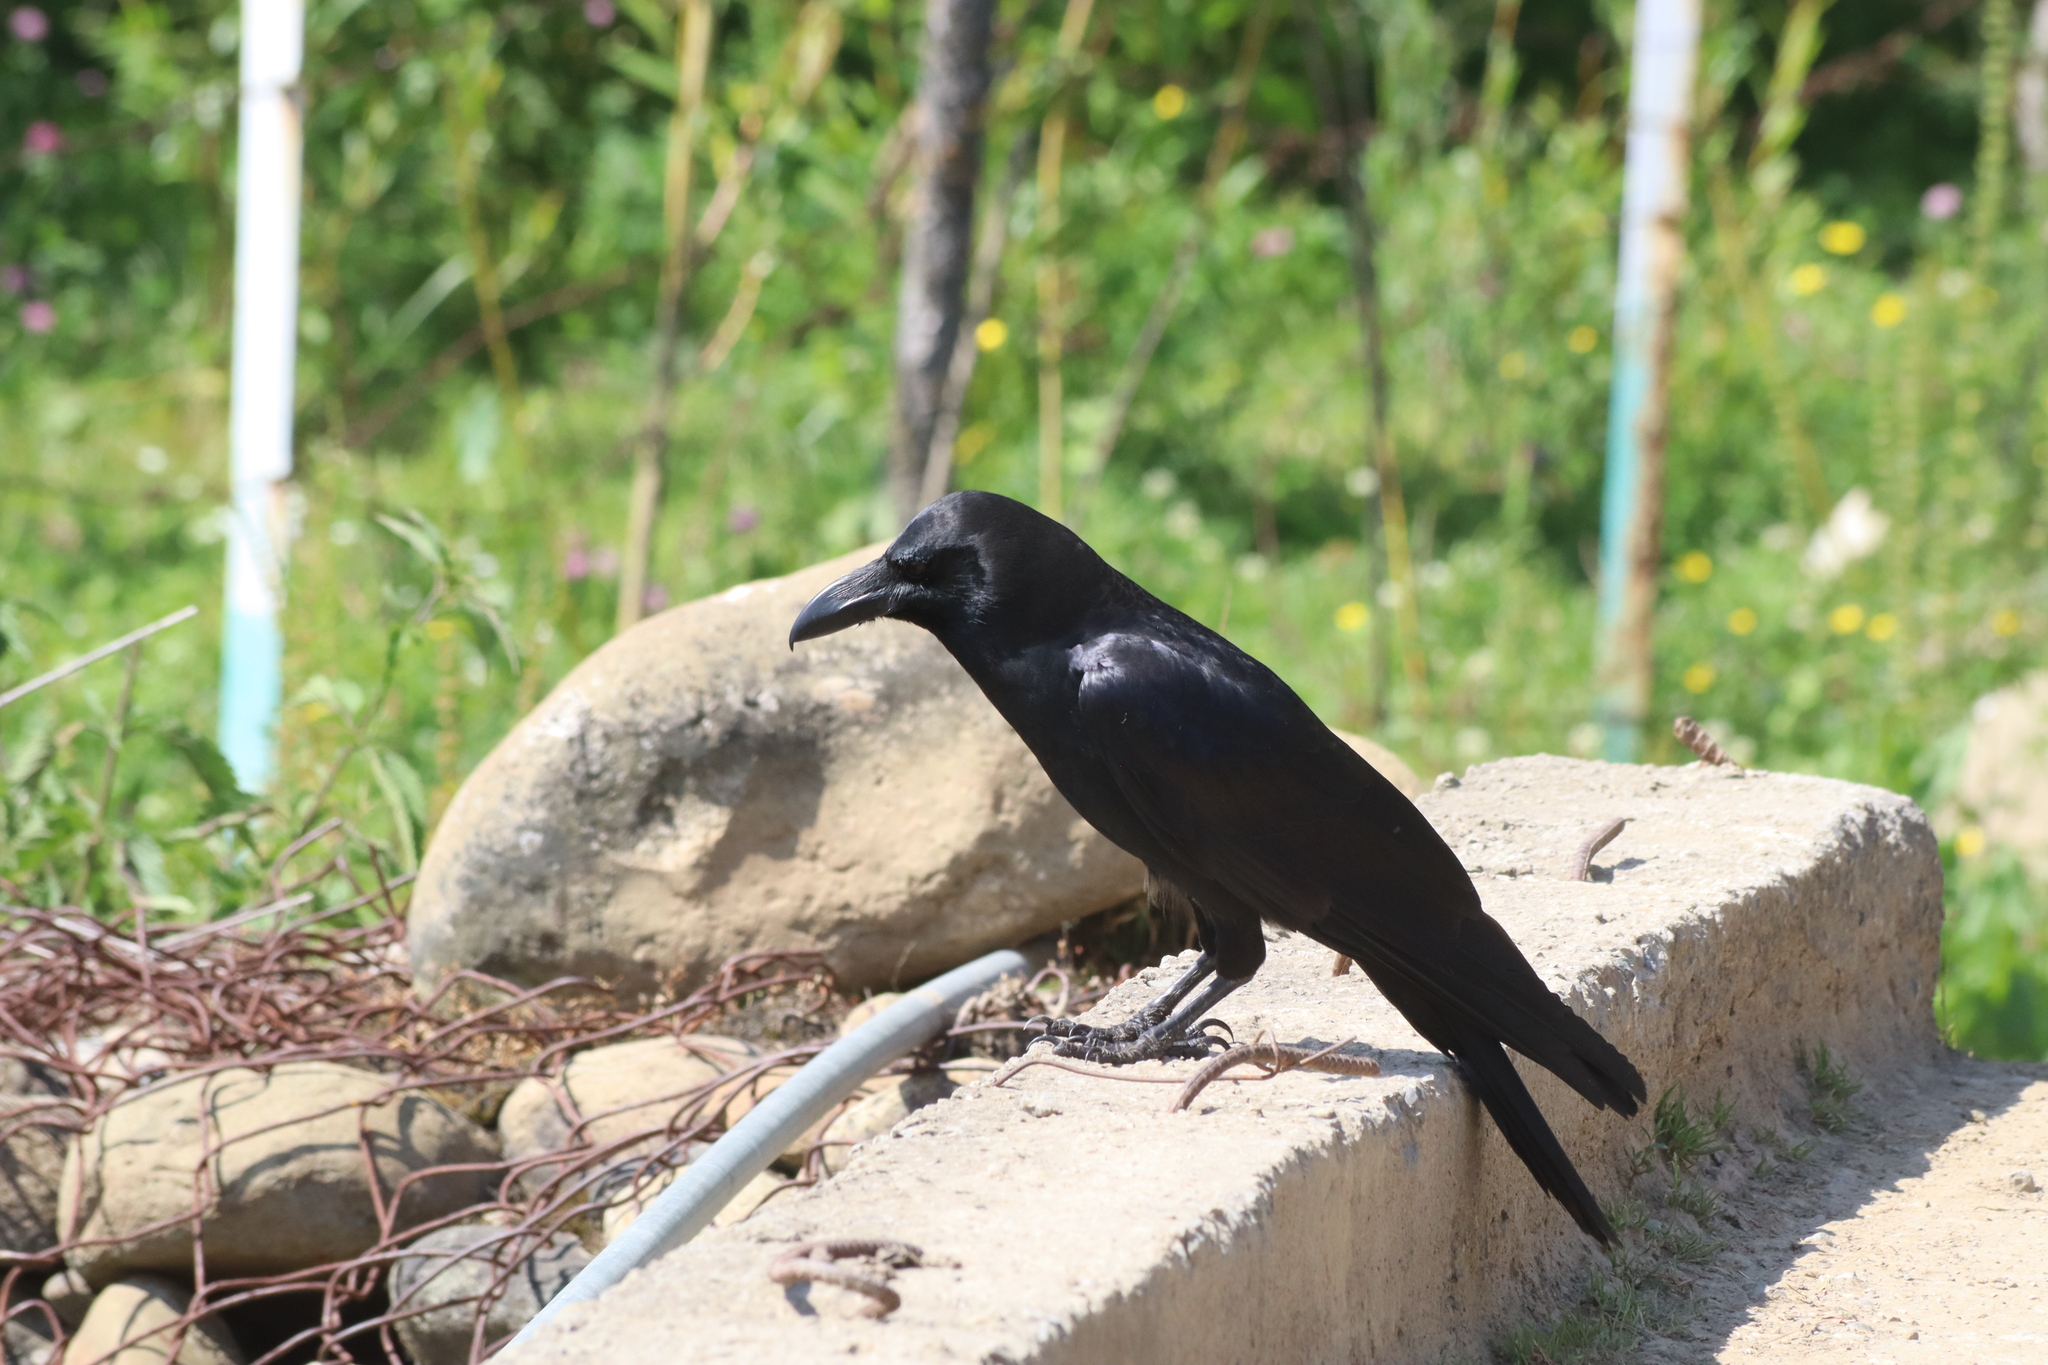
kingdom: Animalia
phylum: Chordata
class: Aves
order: Passeriformes
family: Corvidae
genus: Corvus
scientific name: Corvus macrorhynchos
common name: Large-billed crow
